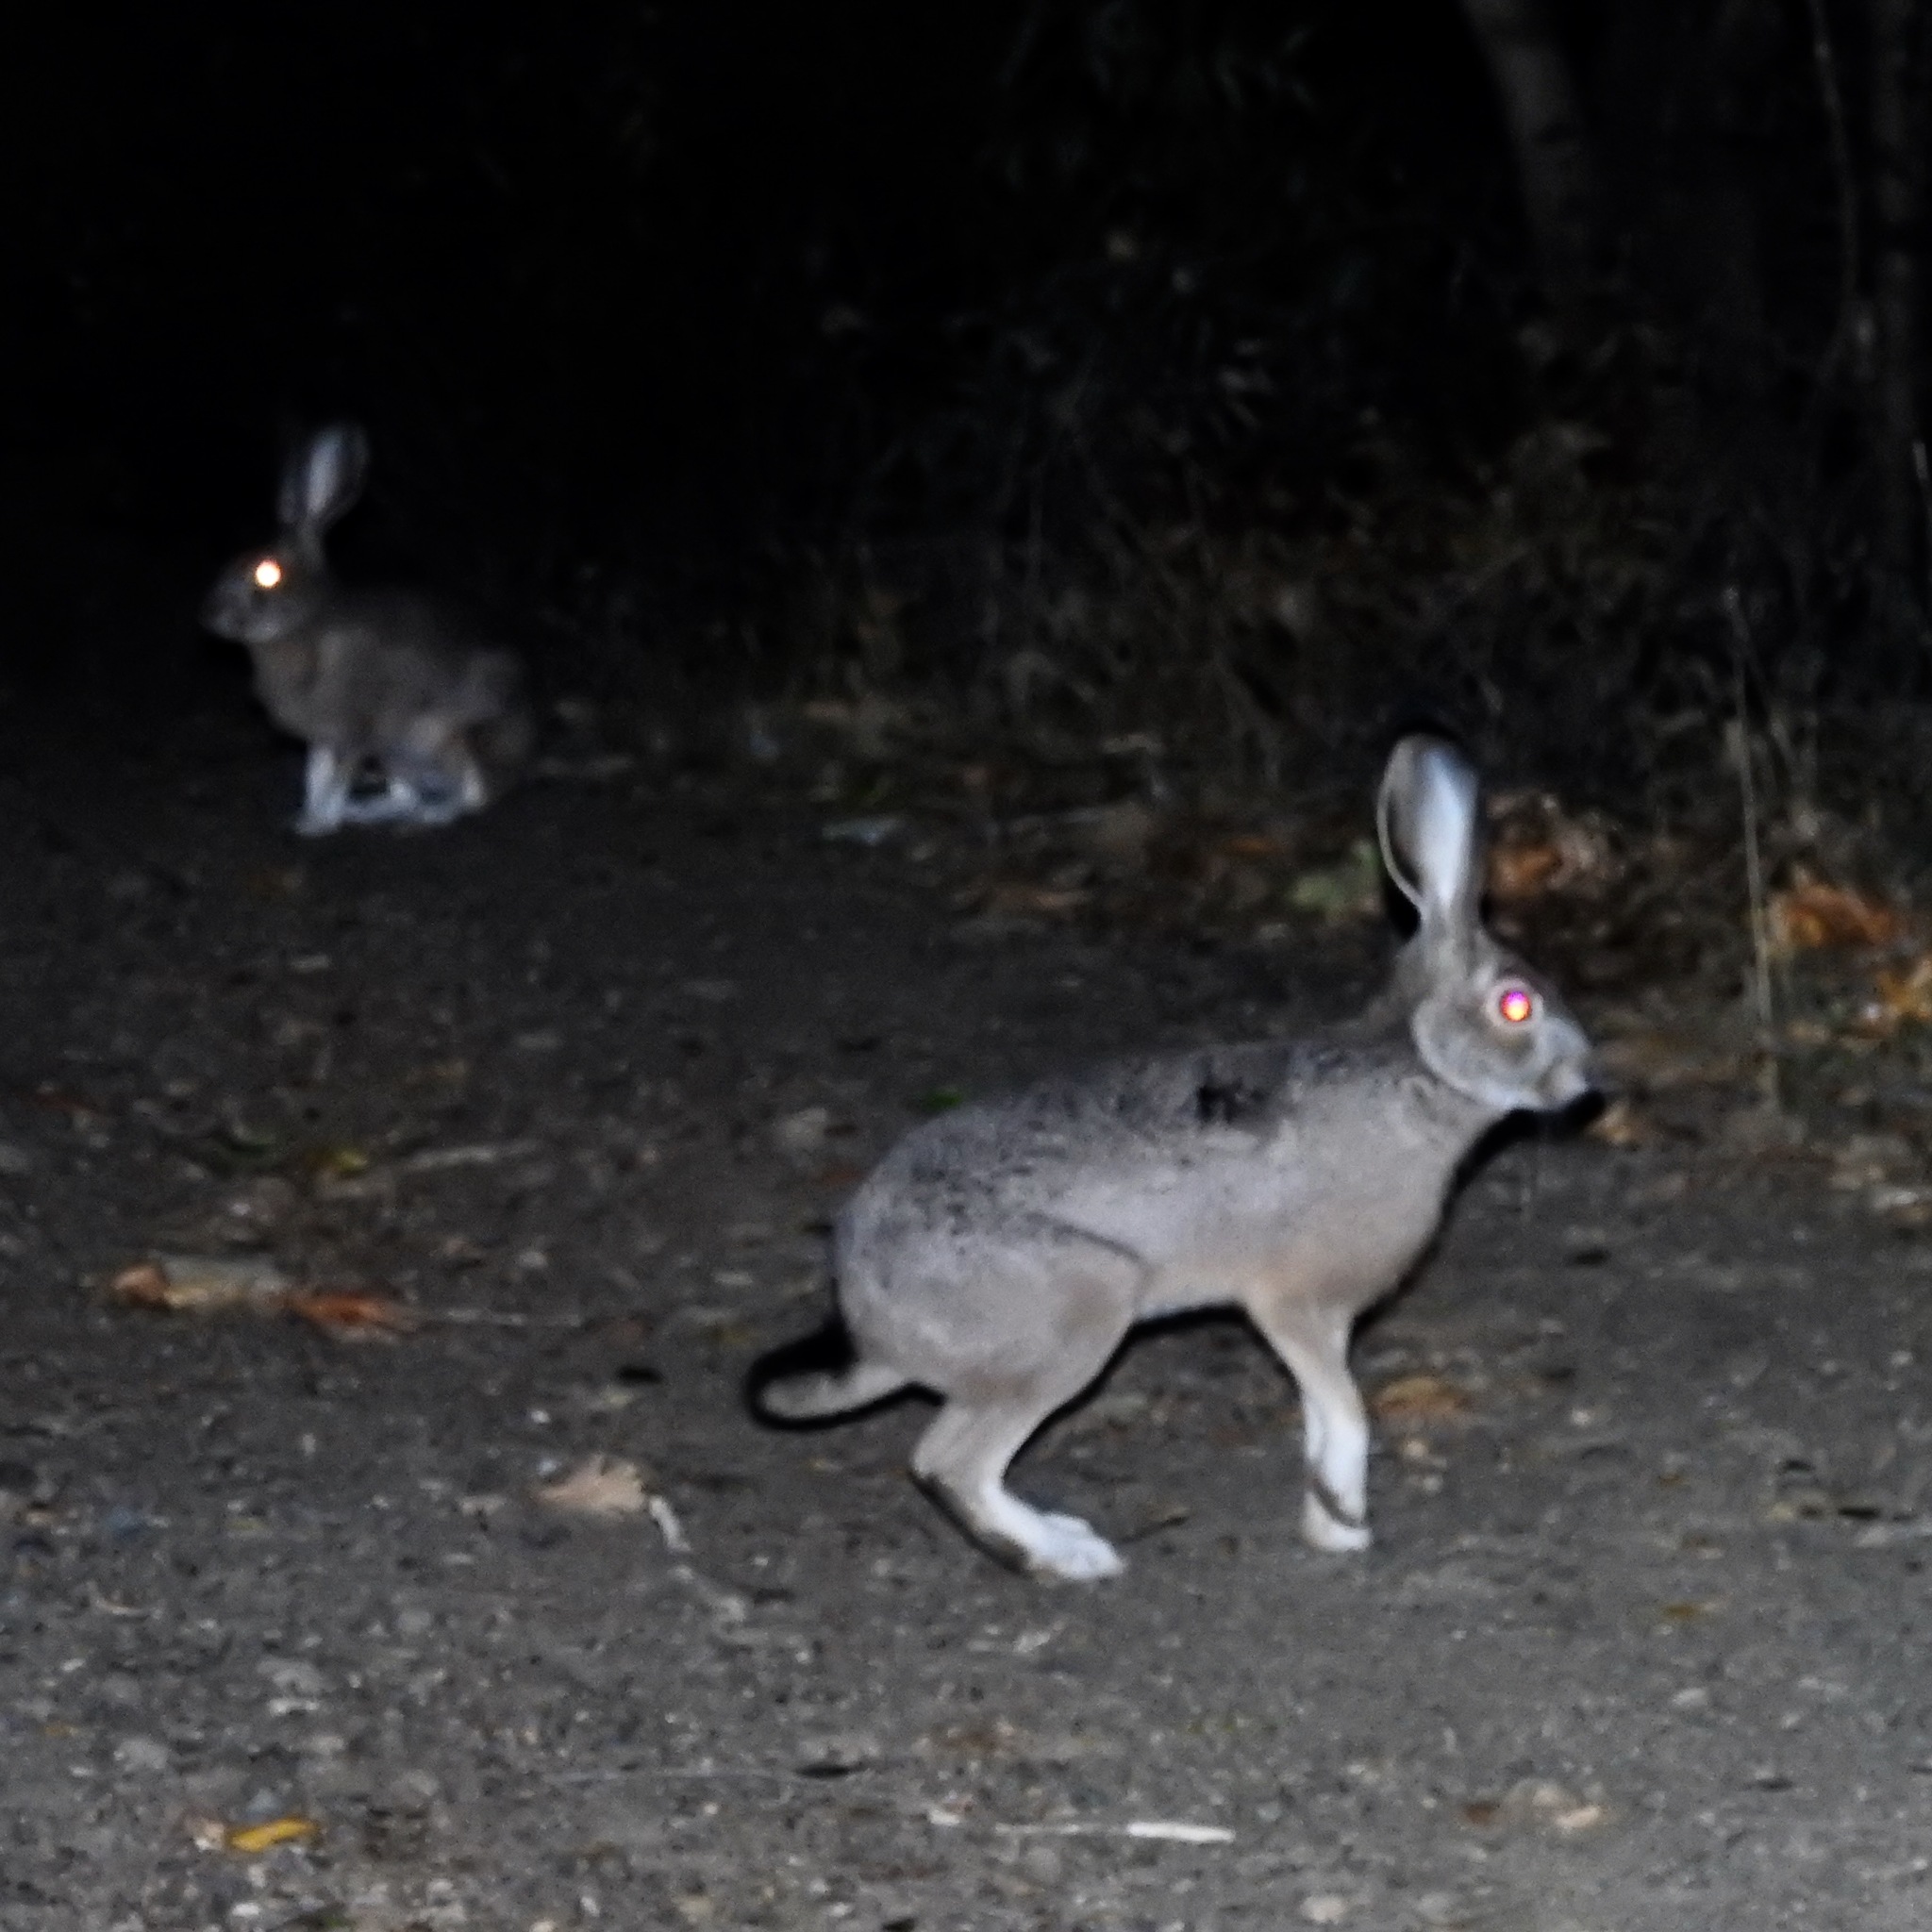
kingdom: Animalia
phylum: Chordata
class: Mammalia
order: Lagomorpha
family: Leporidae
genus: Lepus
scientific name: Lepus californicus
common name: Black-tailed jackrabbit
